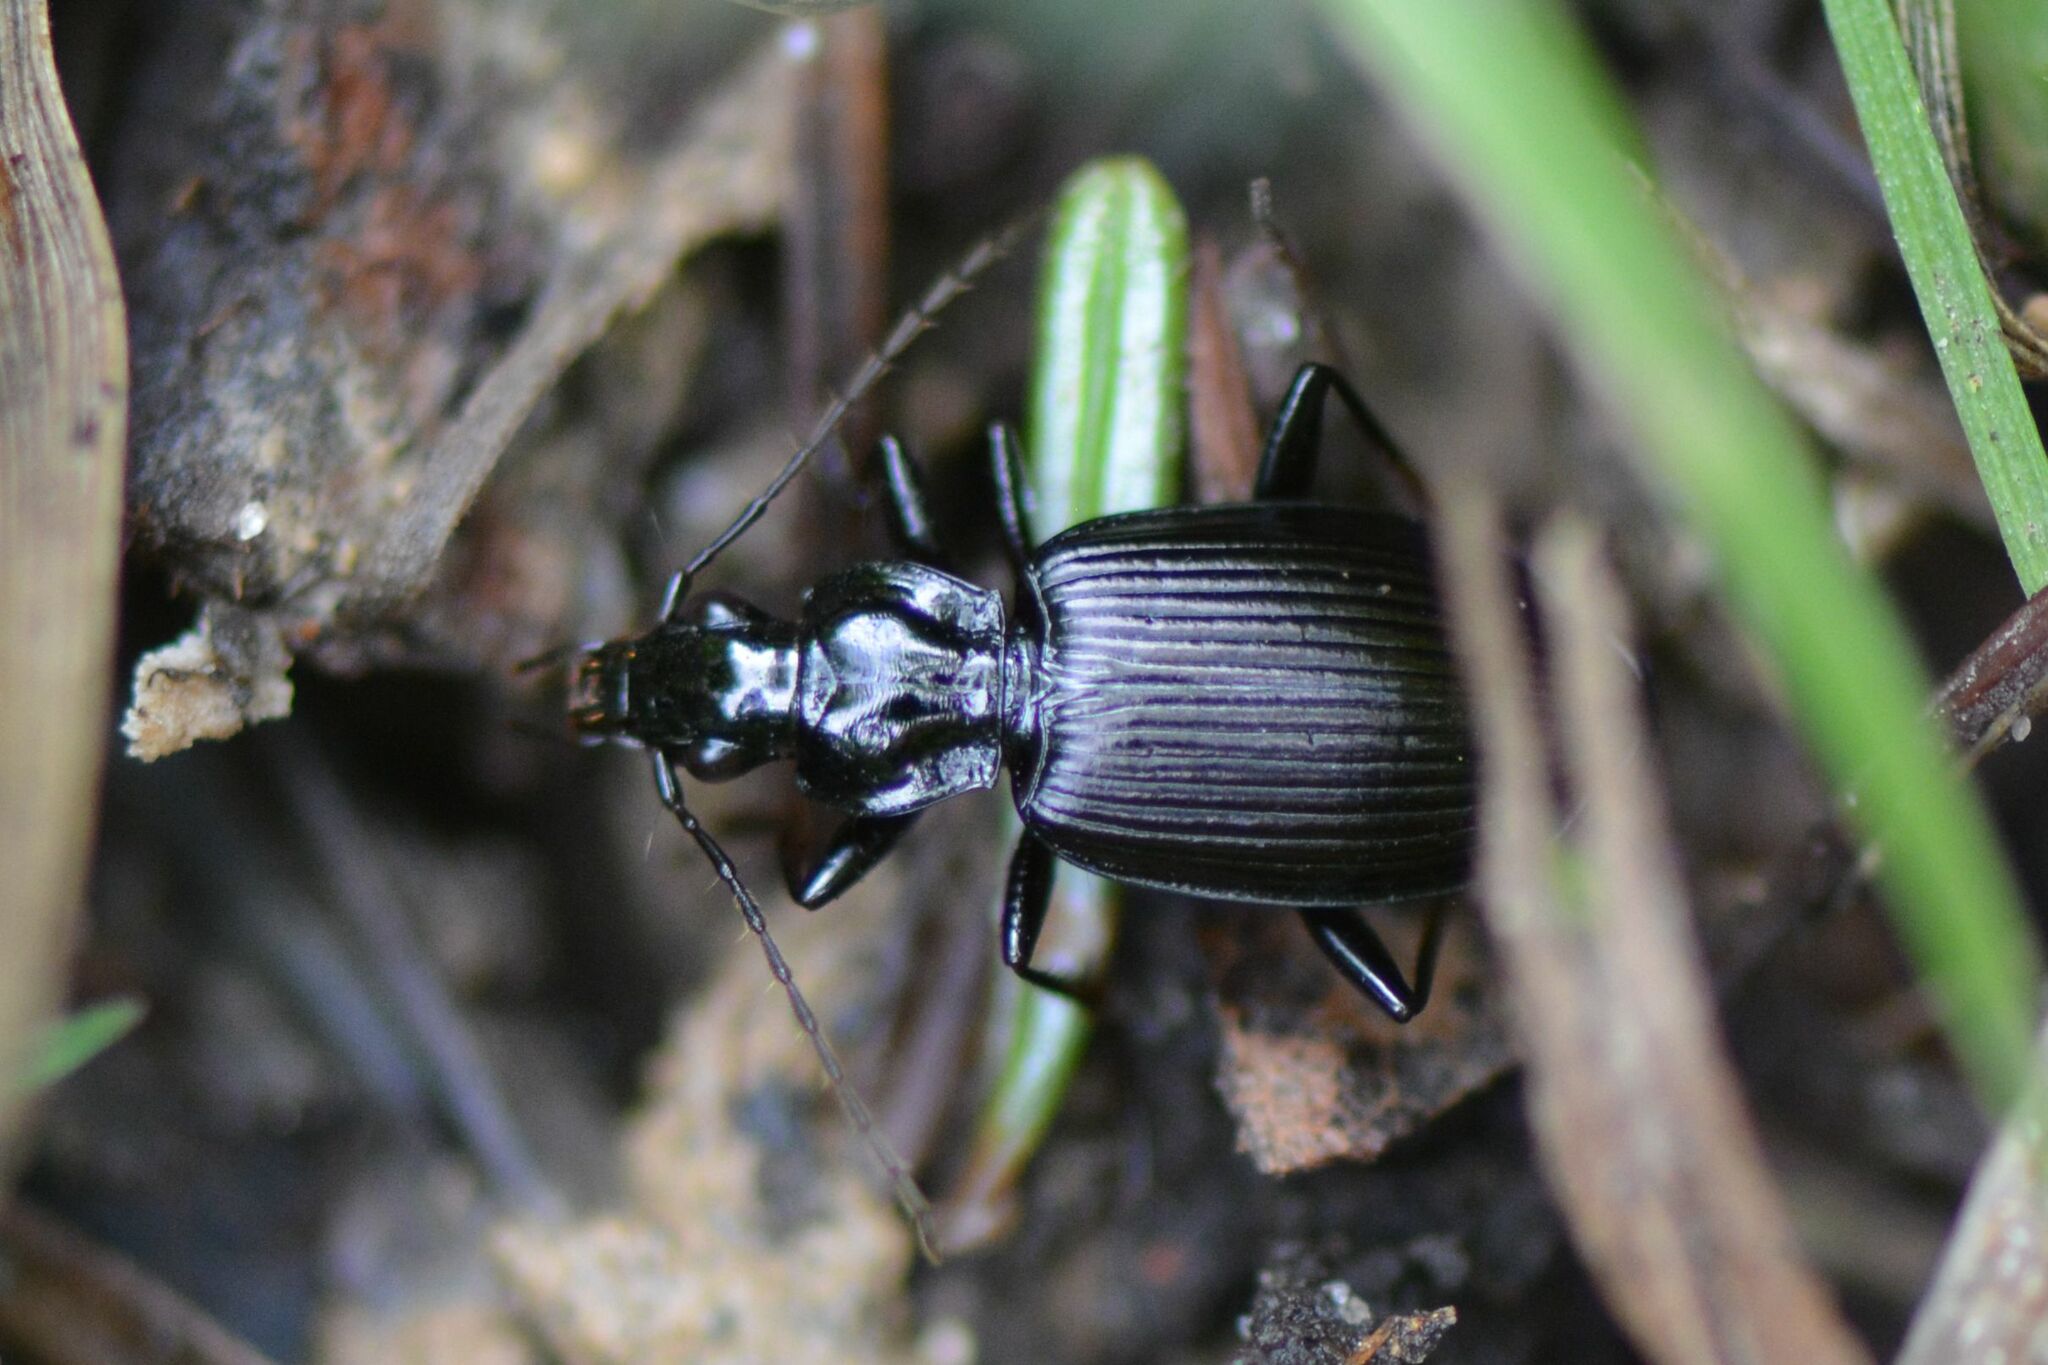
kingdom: Animalia
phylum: Arthropoda
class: Insecta
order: Coleoptera
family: Carabidae
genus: Platynus
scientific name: Platynus assimilis
